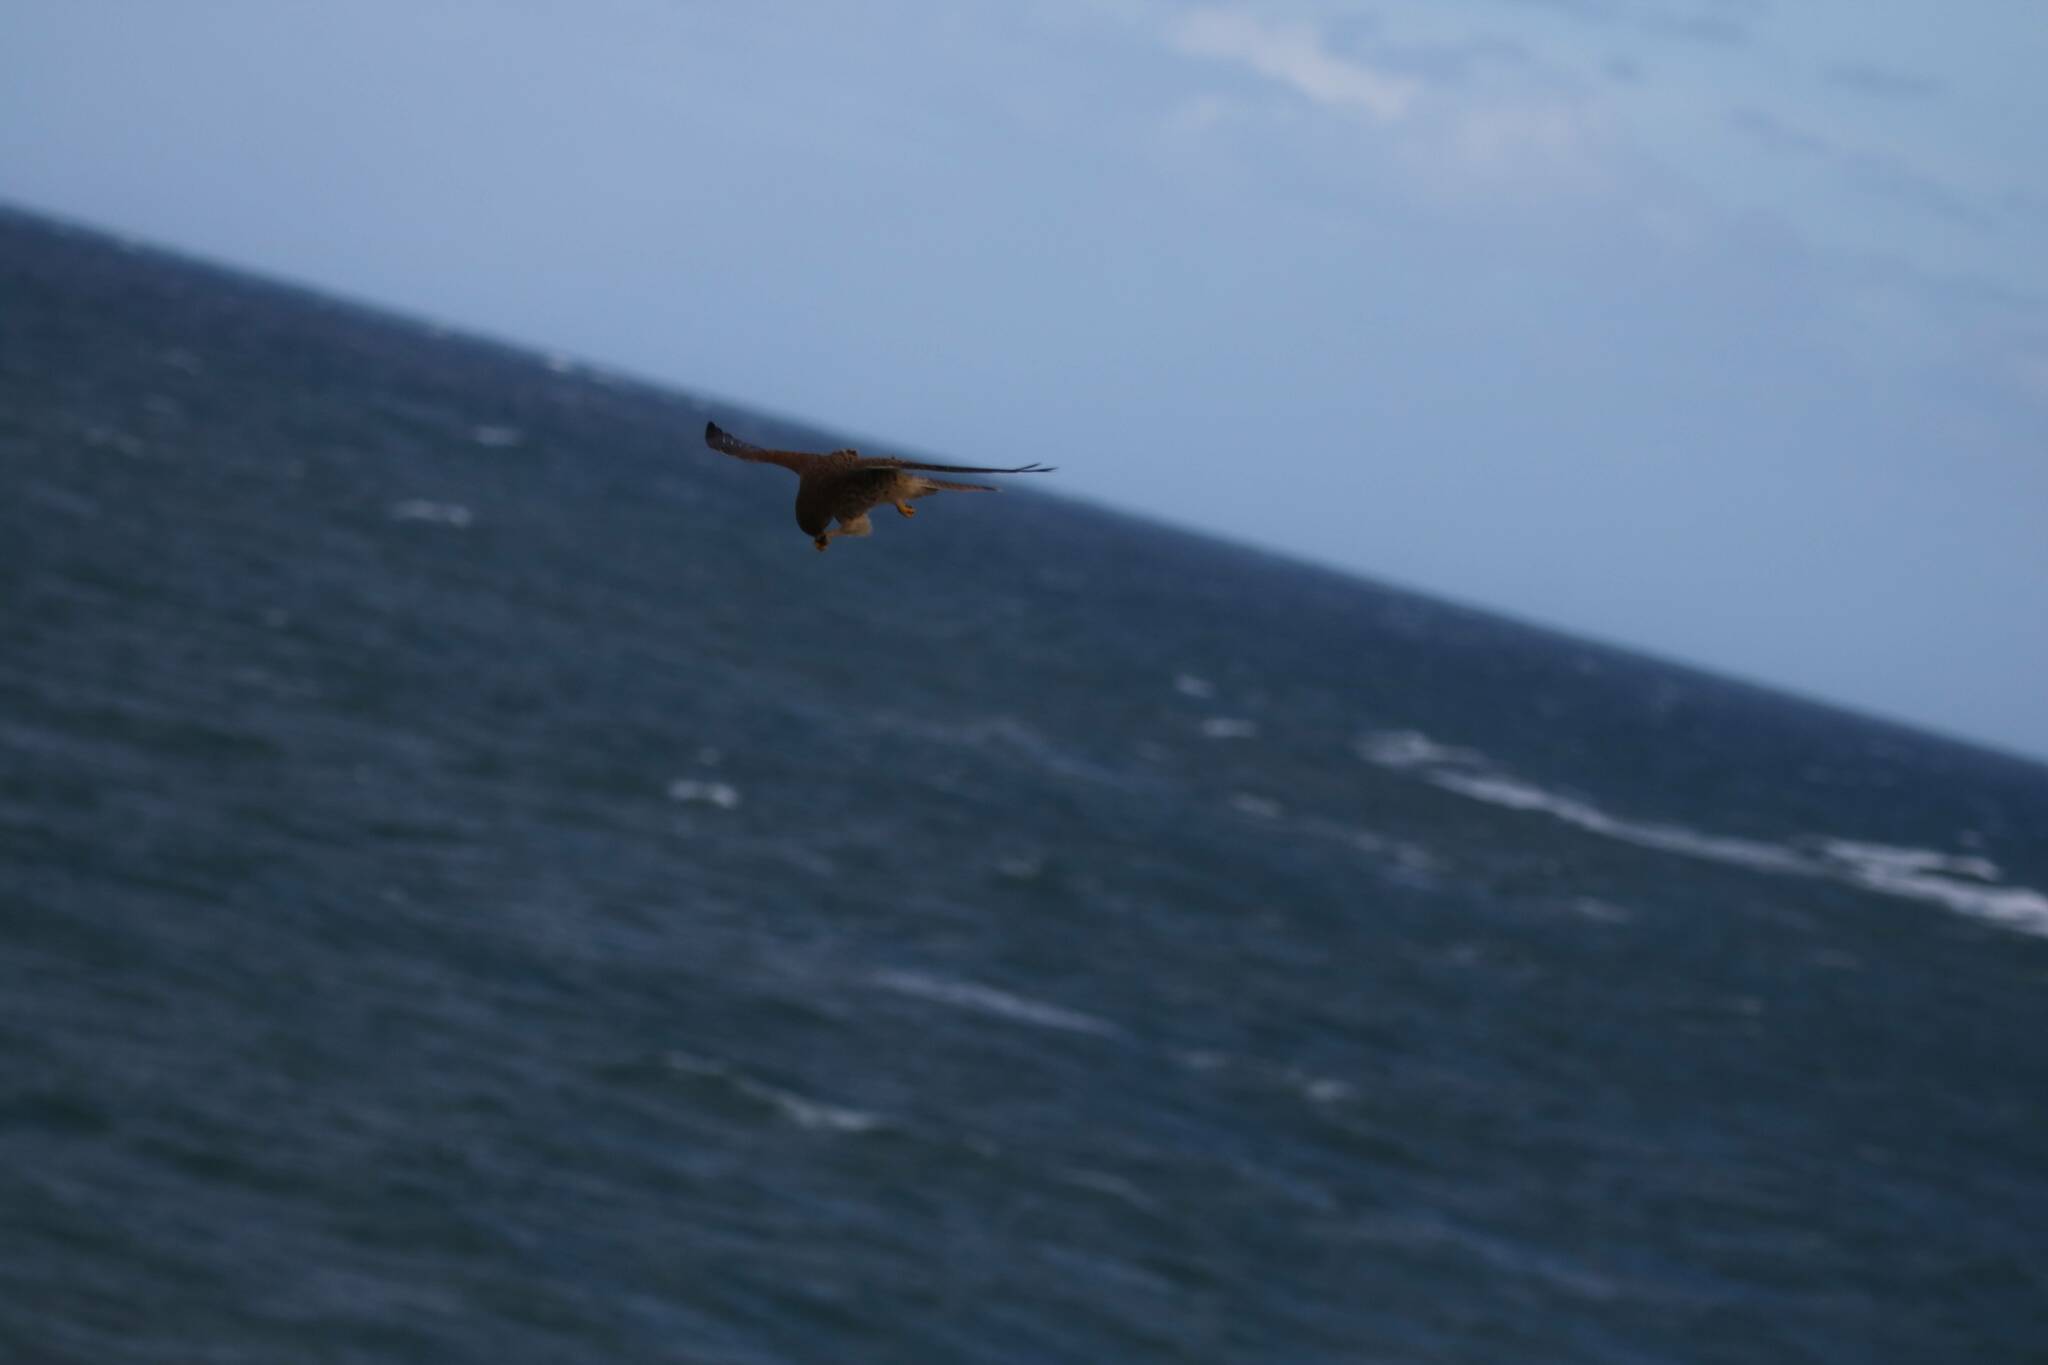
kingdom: Animalia
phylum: Chordata
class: Aves
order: Falconiformes
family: Falconidae
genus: Falco
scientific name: Falco tinnunculus
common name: Common kestrel
